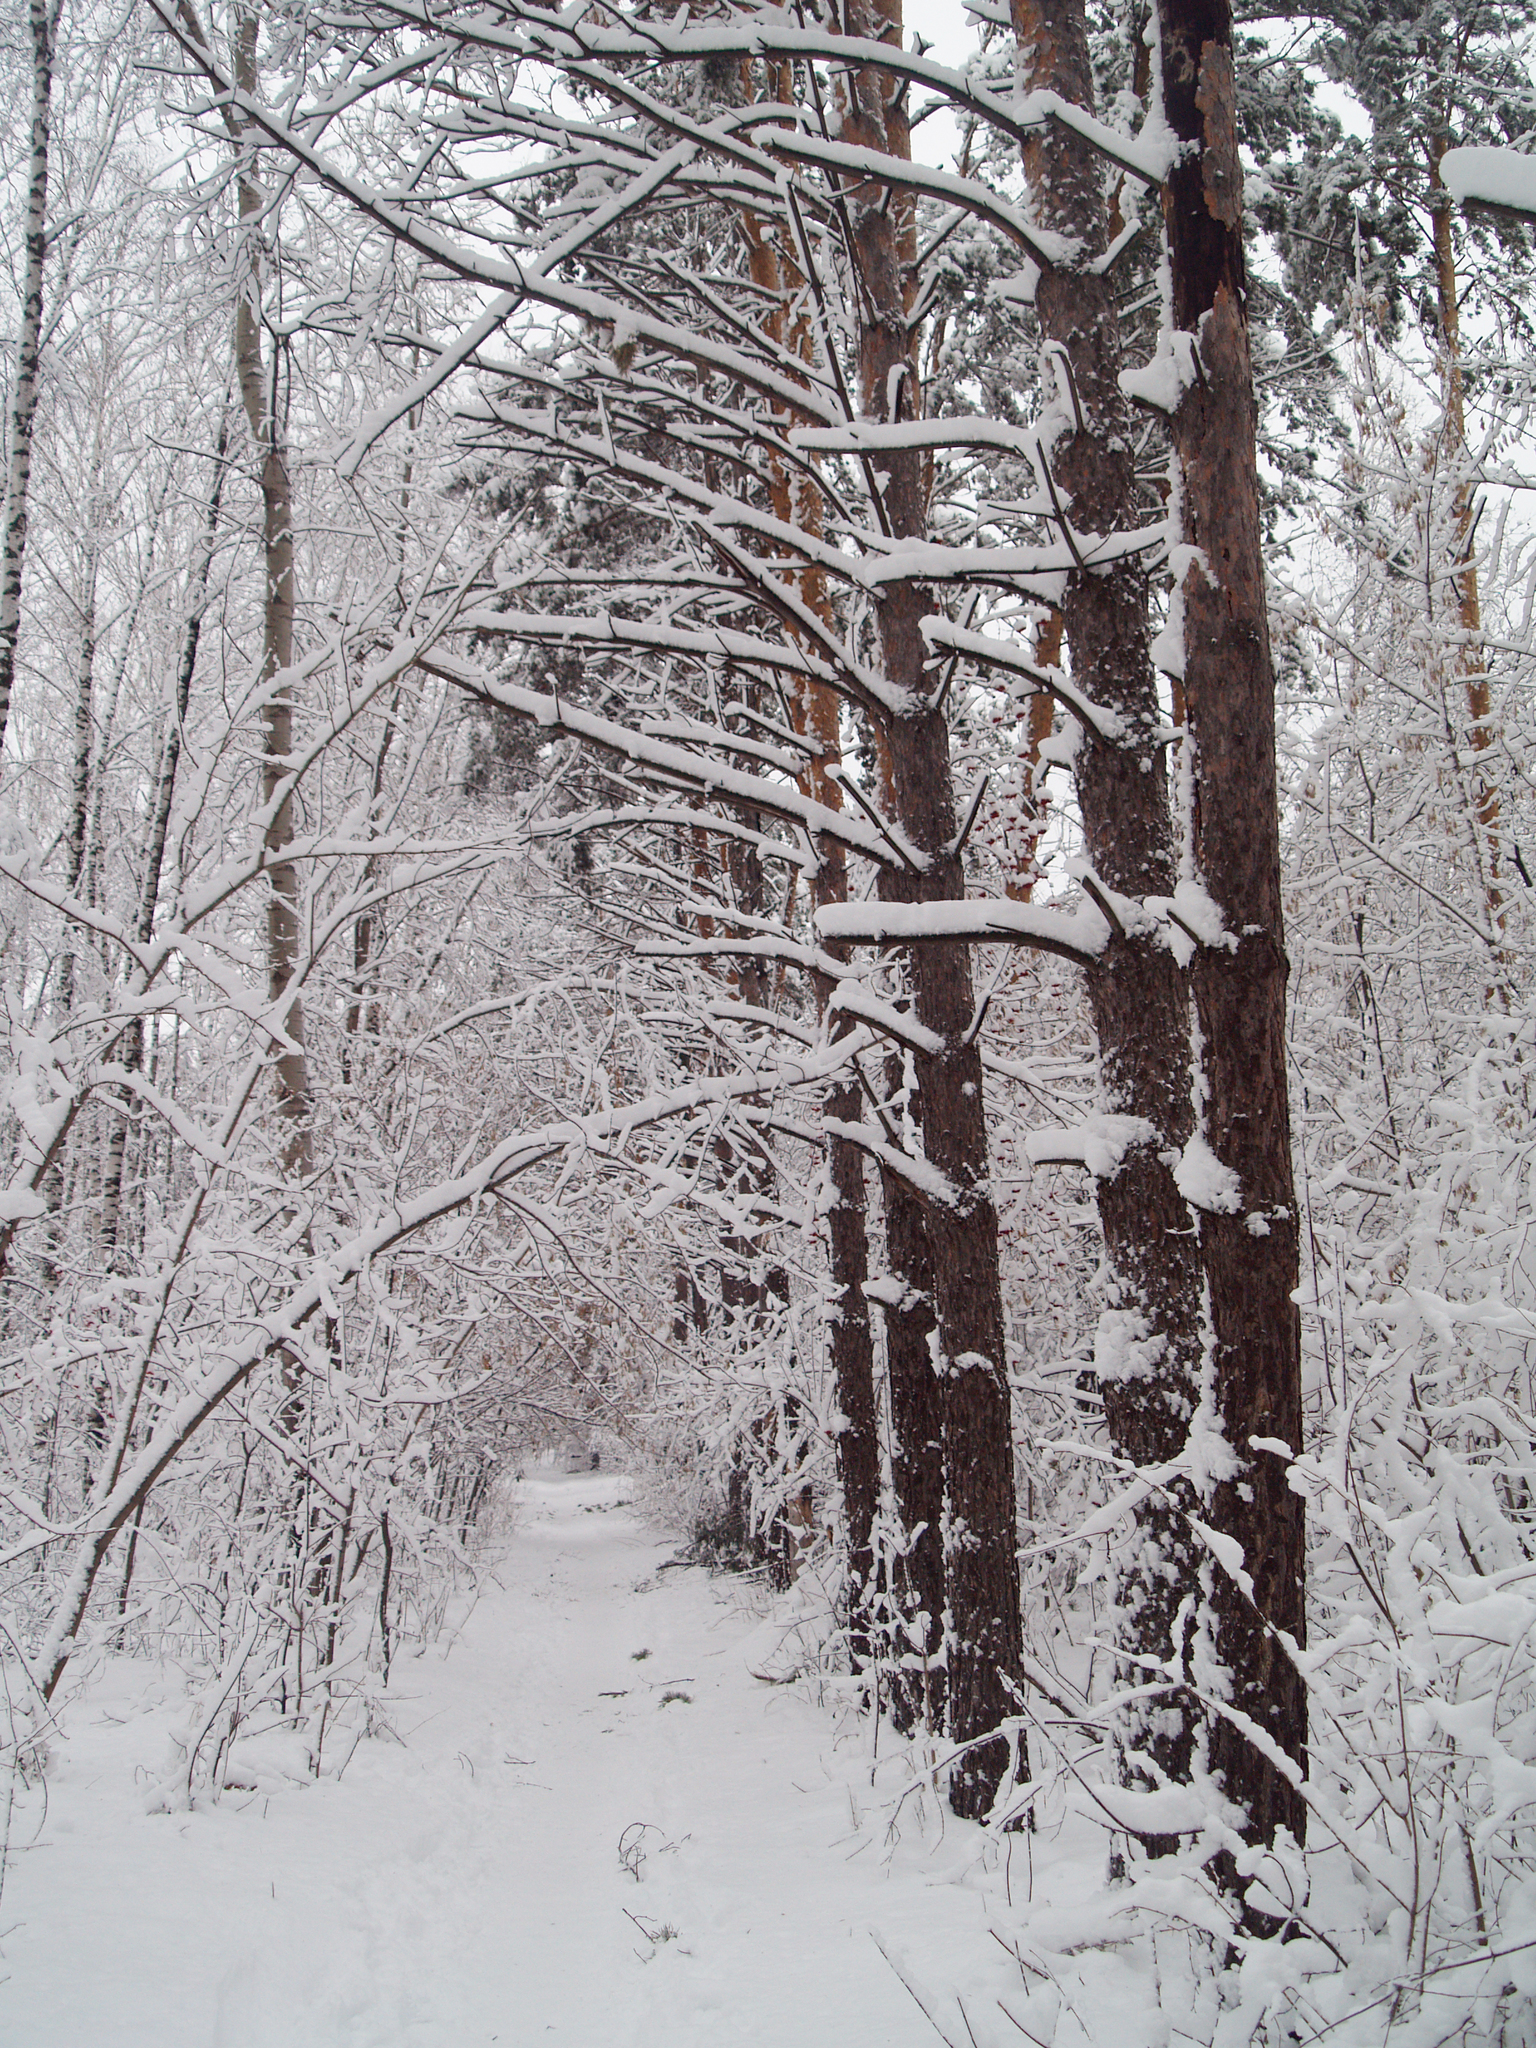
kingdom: Plantae
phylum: Tracheophyta
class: Pinopsida
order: Pinales
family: Pinaceae
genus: Pinus
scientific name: Pinus sylvestris
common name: Scots pine
